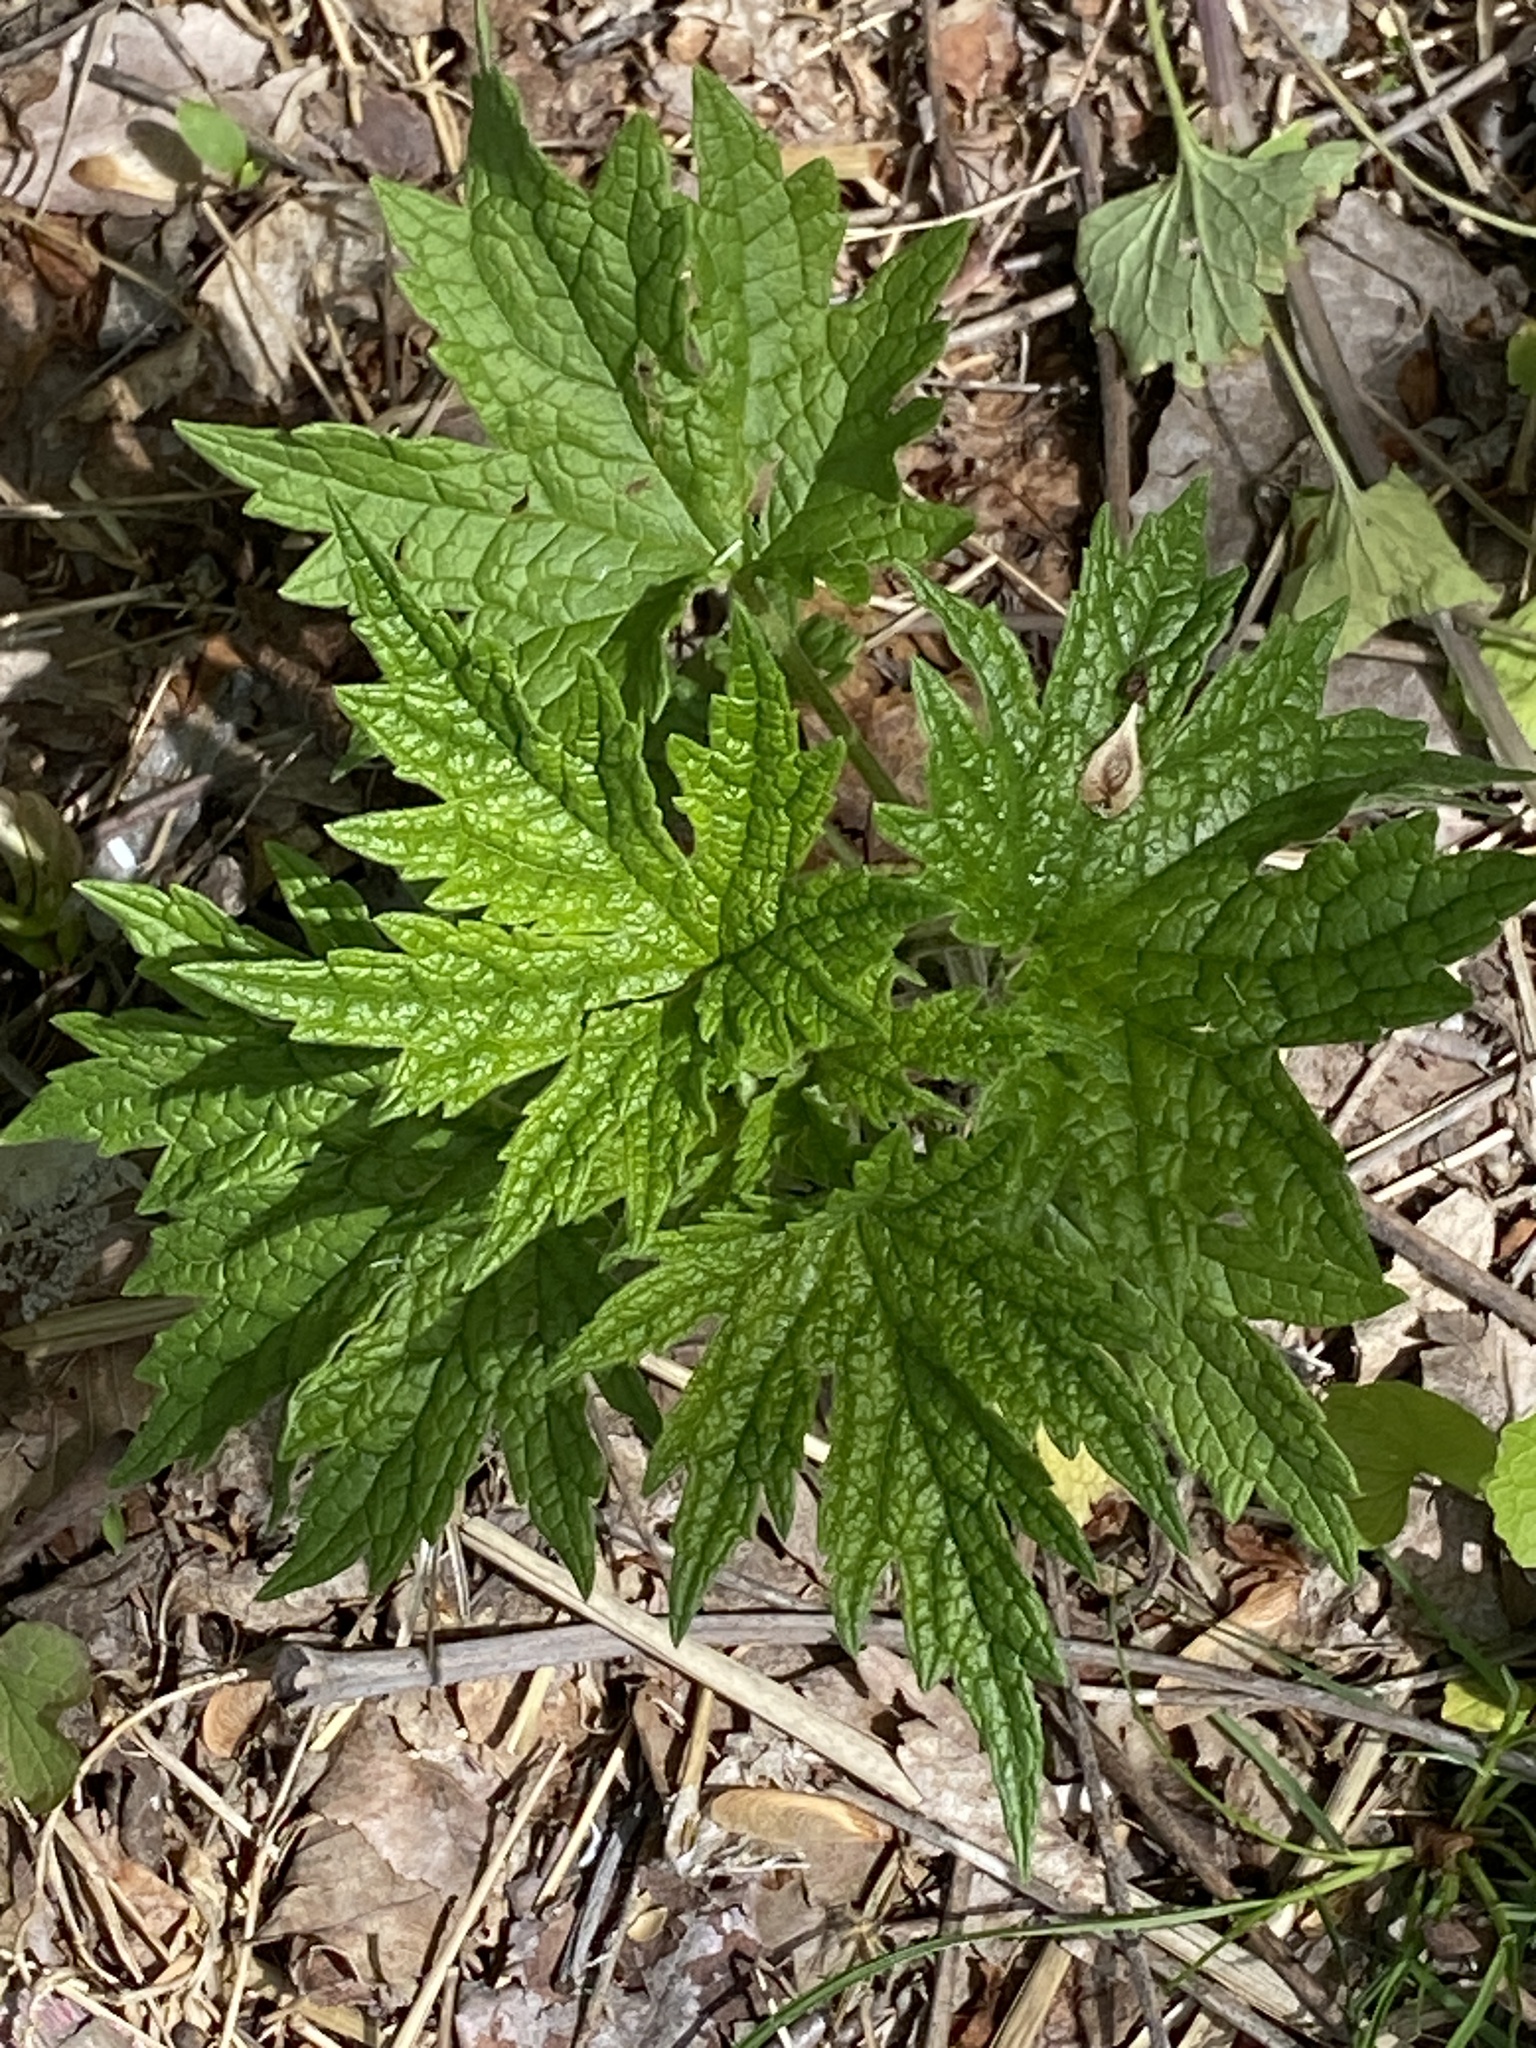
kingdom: Plantae
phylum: Tracheophyta
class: Magnoliopsida
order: Lamiales
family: Lamiaceae
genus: Leonurus
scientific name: Leonurus cardiaca
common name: Motherwort
